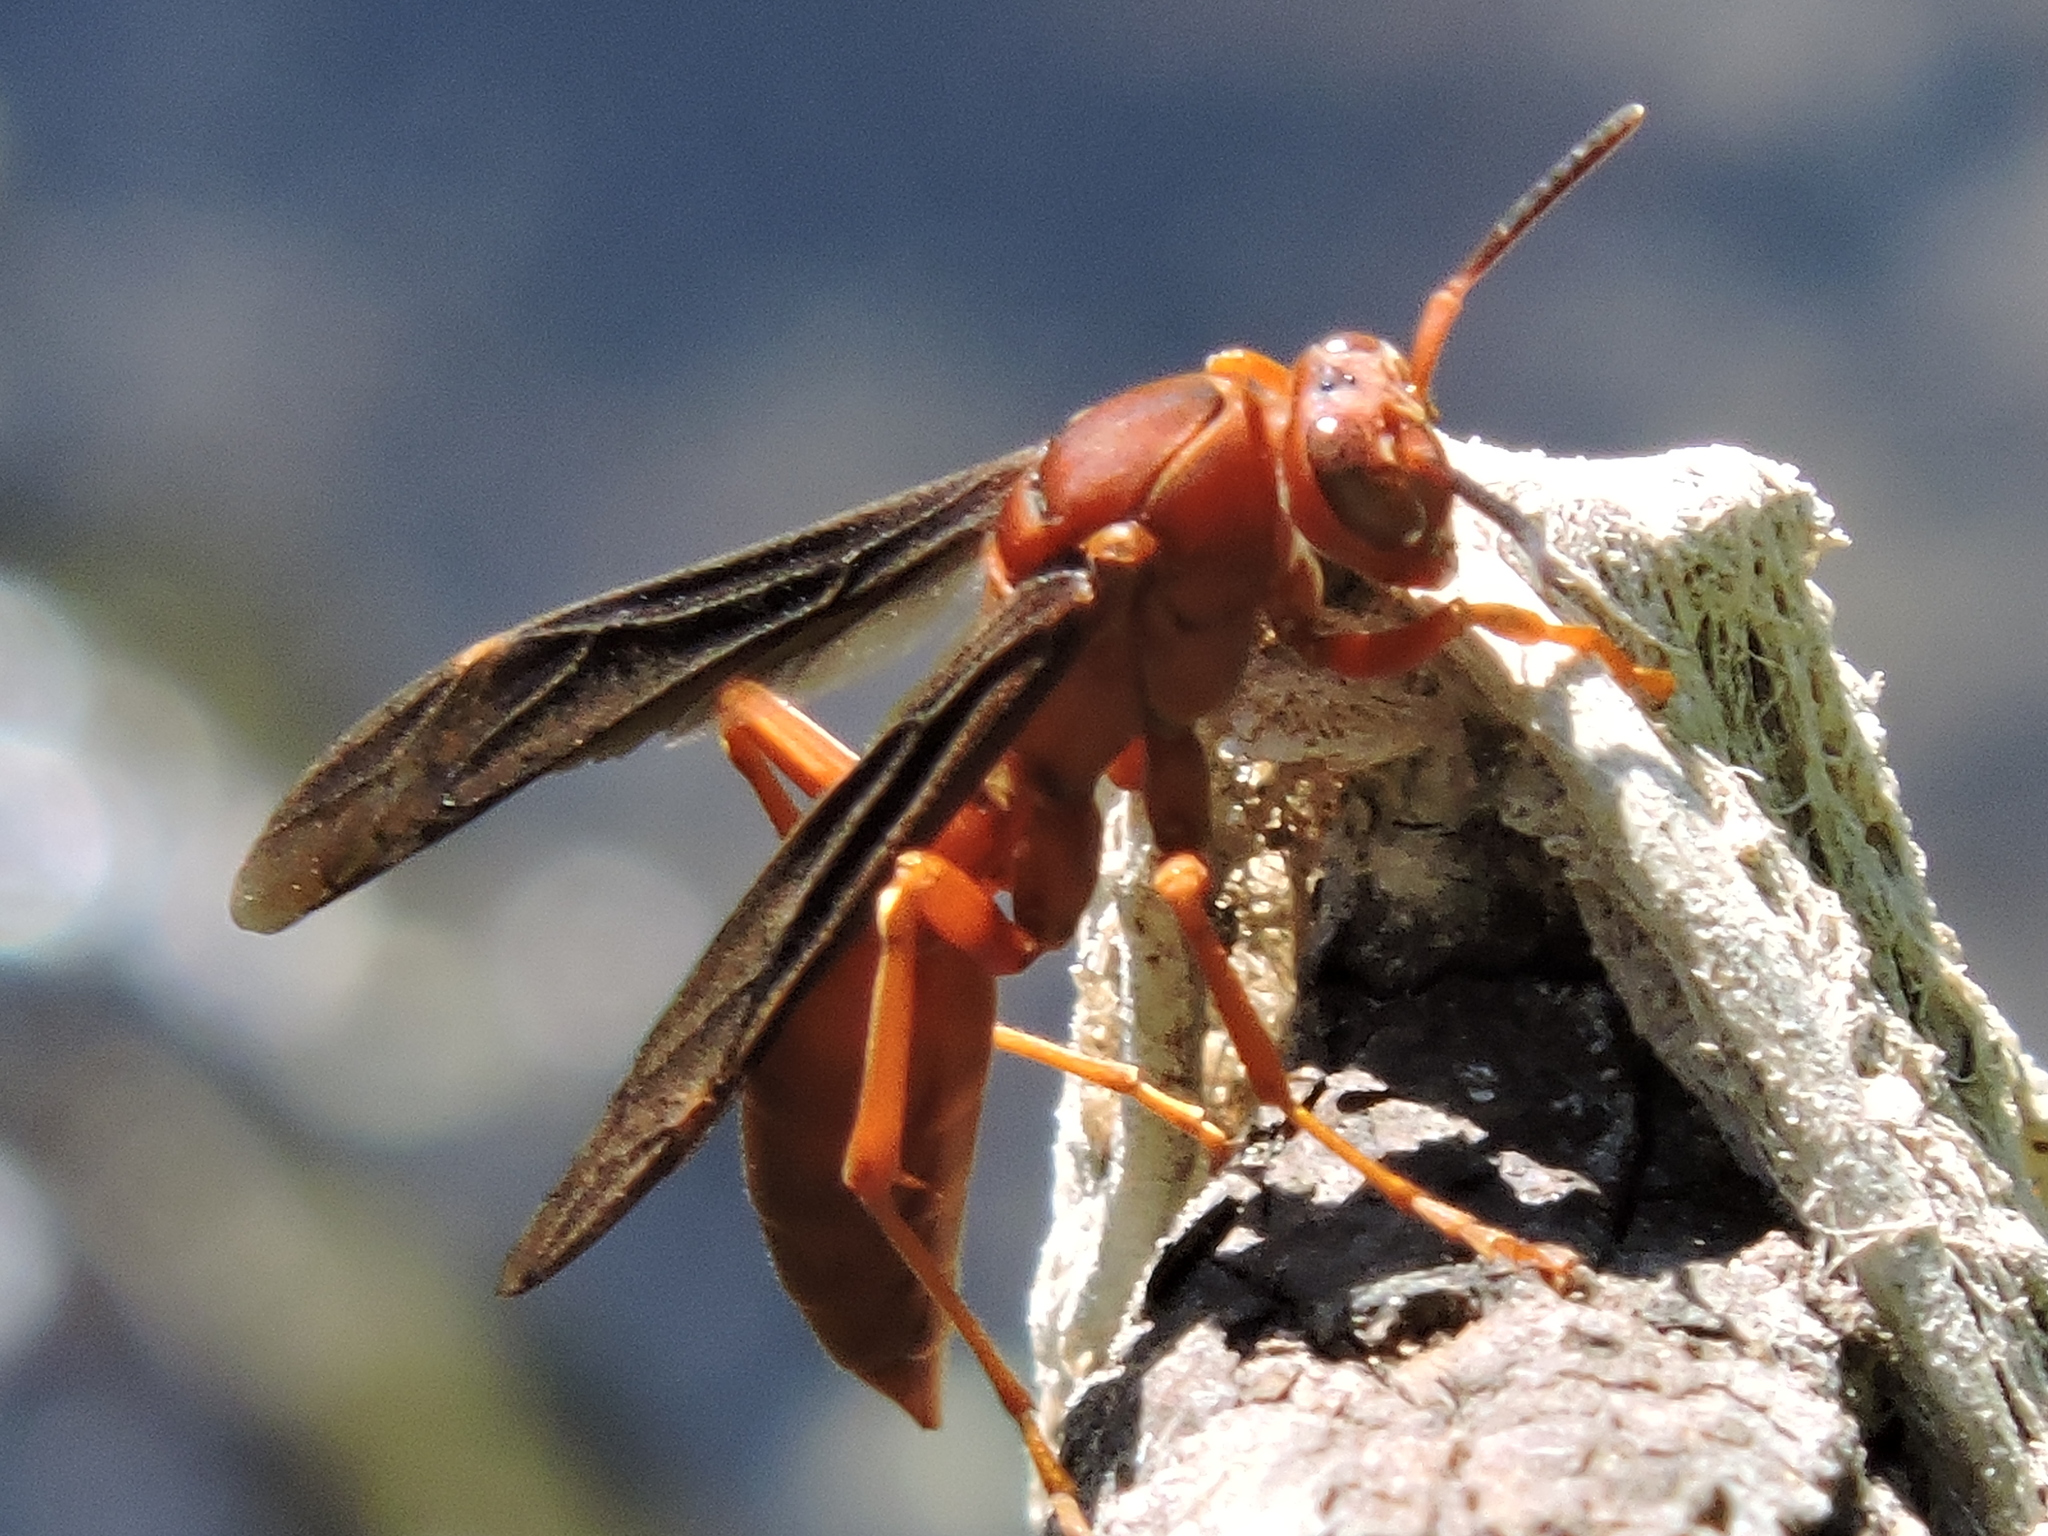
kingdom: Animalia
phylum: Arthropoda
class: Insecta
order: Hymenoptera
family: Eumenidae
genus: Polistes
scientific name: Polistes
